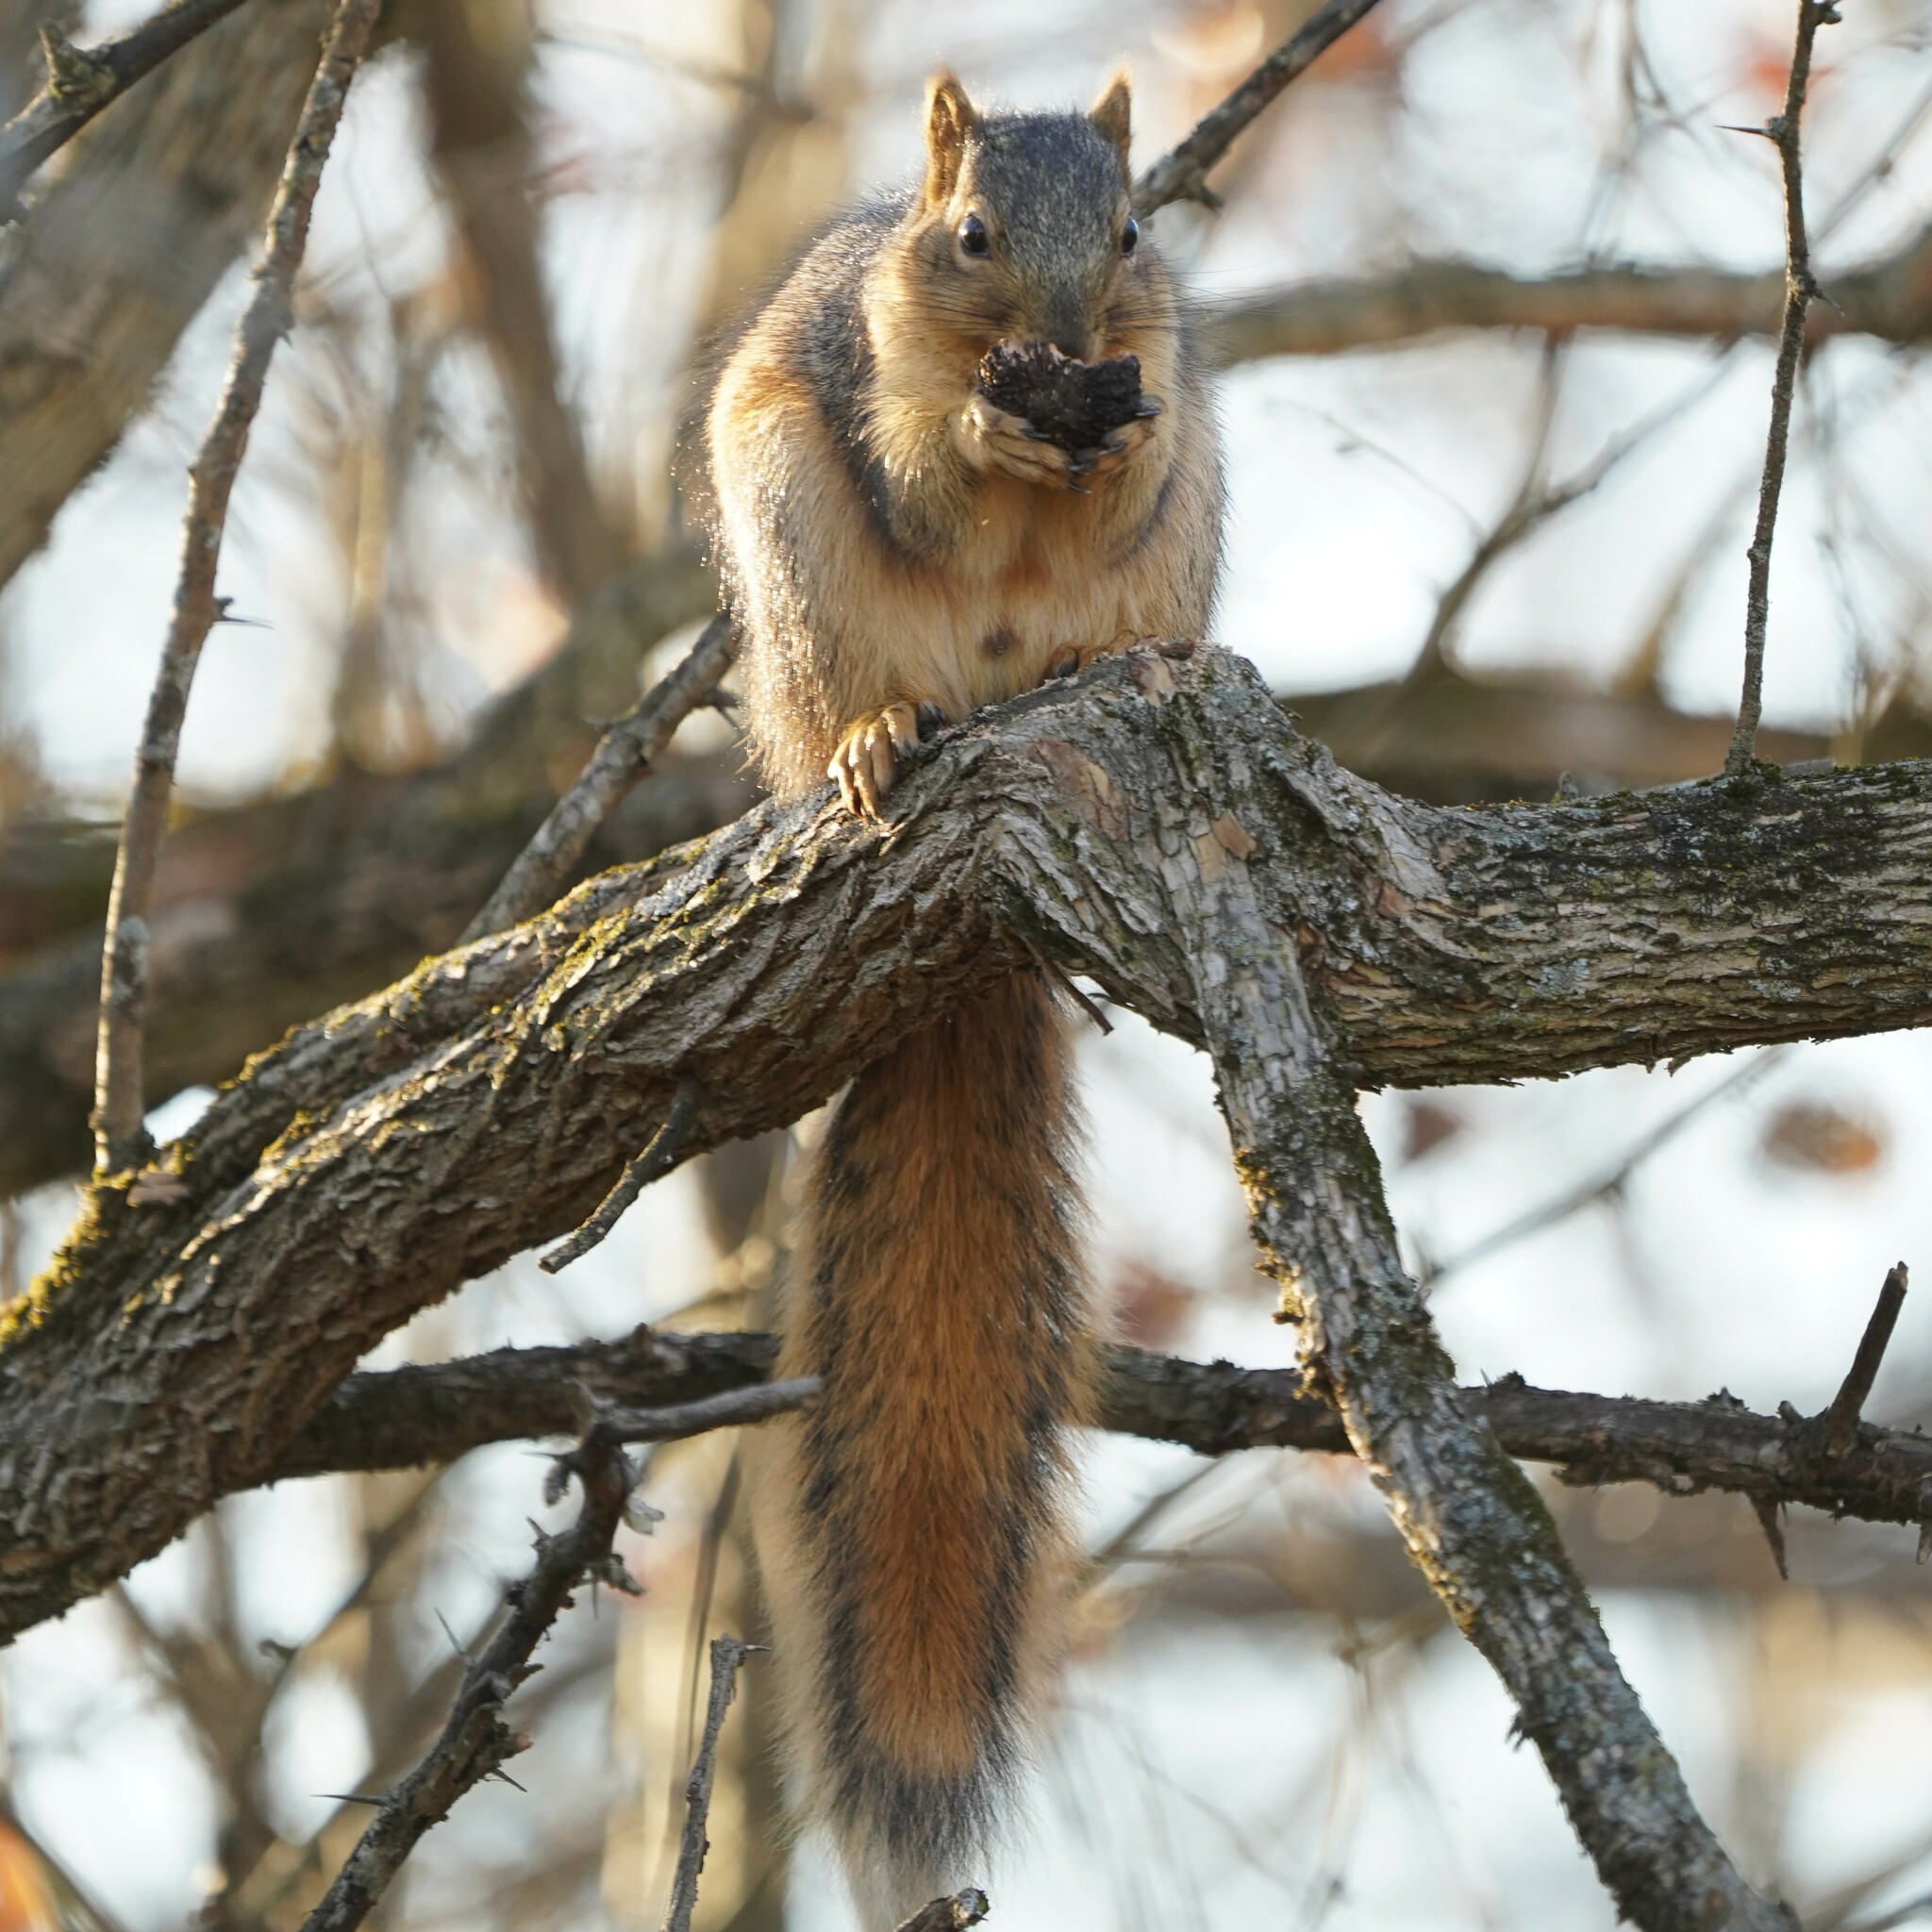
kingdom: Animalia
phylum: Chordata
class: Mammalia
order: Rodentia
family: Sciuridae
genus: Sciurus
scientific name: Sciurus niger
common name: Fox squirrel
